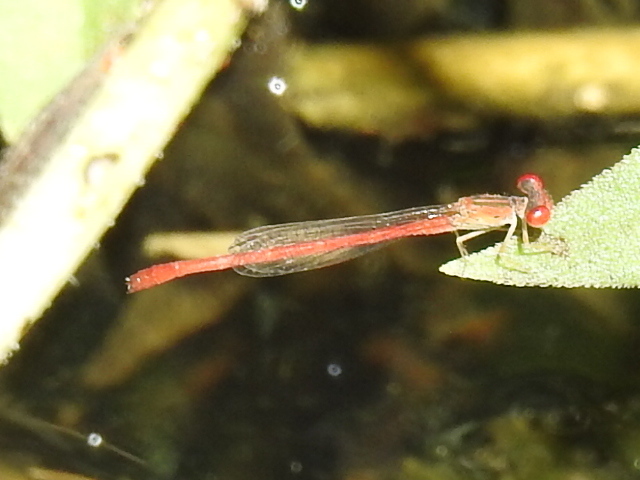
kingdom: Animalia
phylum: Arthropoda
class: Insecta
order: Odonata
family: Coenagrionidae
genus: Telebasis
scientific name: Telebasis salva
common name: Desert firetail
